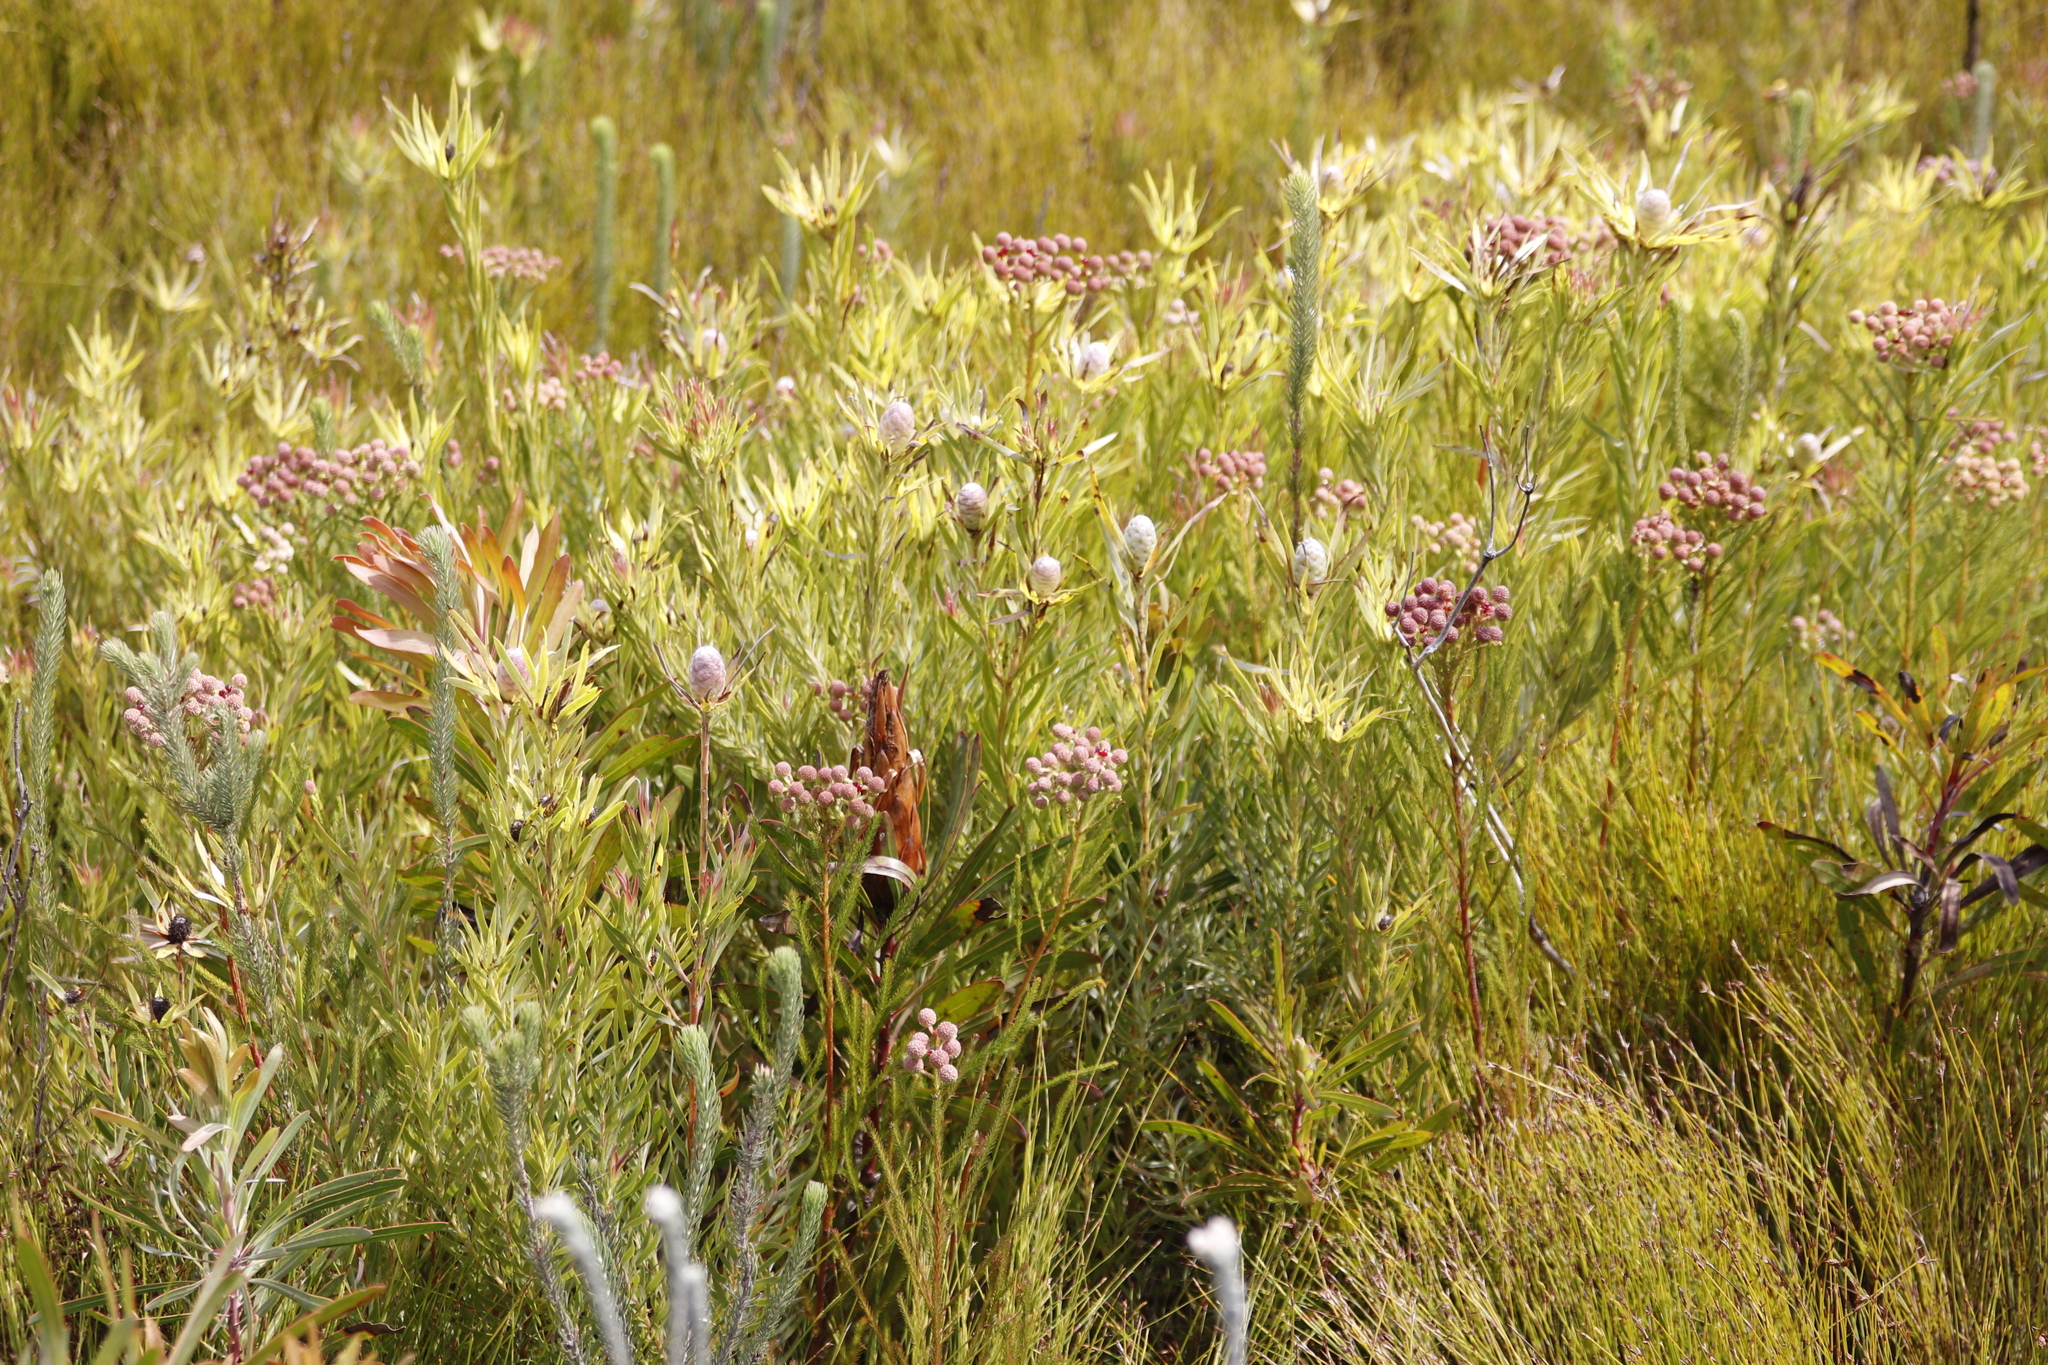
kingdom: Plantae
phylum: Tracheophyta
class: Magnoliopsida
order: Proteales
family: Proteaceae
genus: Leucadendron
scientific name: Leucadendron xanthoconus
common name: Sickle-leaf conebush
